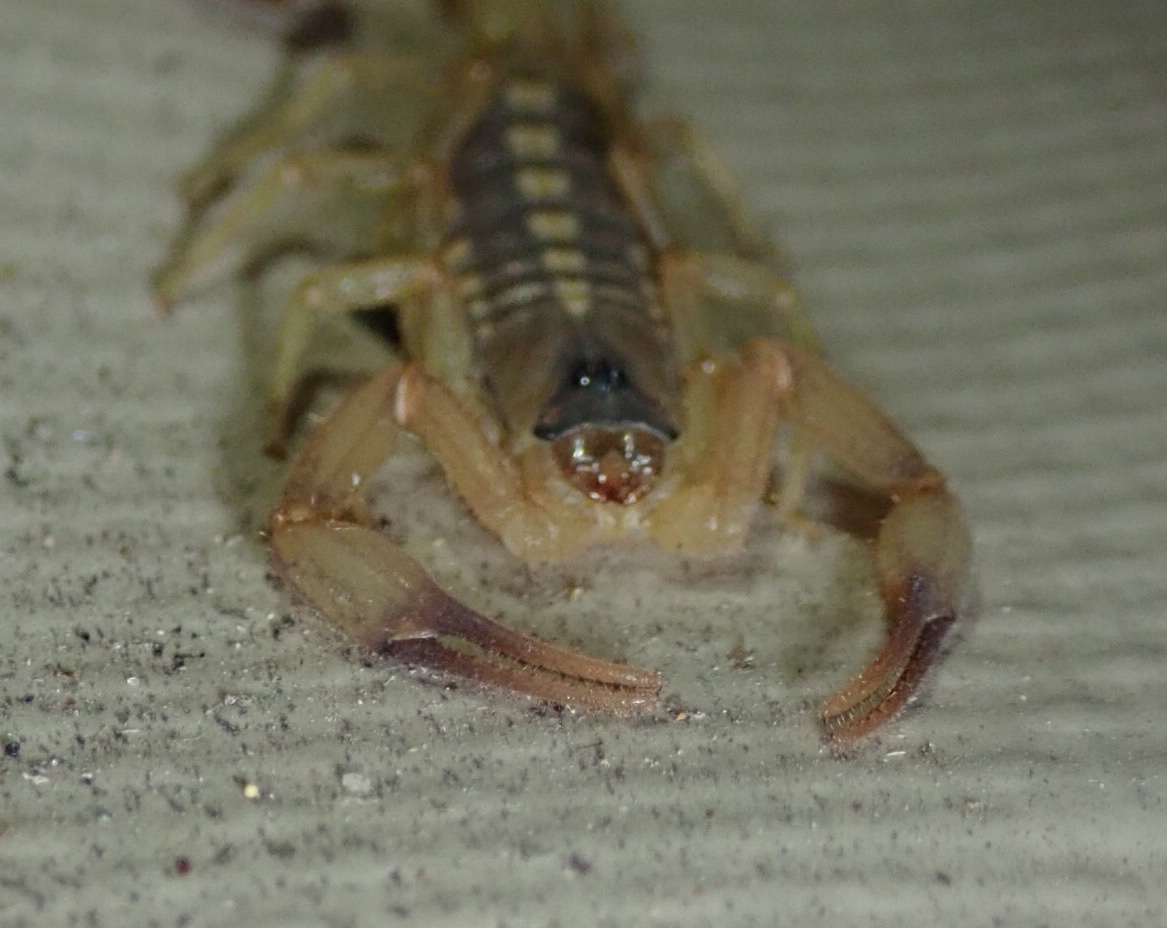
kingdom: Animalia
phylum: Arthropoda
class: Arachnida
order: Scorpiones
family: Buthidae
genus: Uroplectes
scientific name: Uroplectes vittatus
